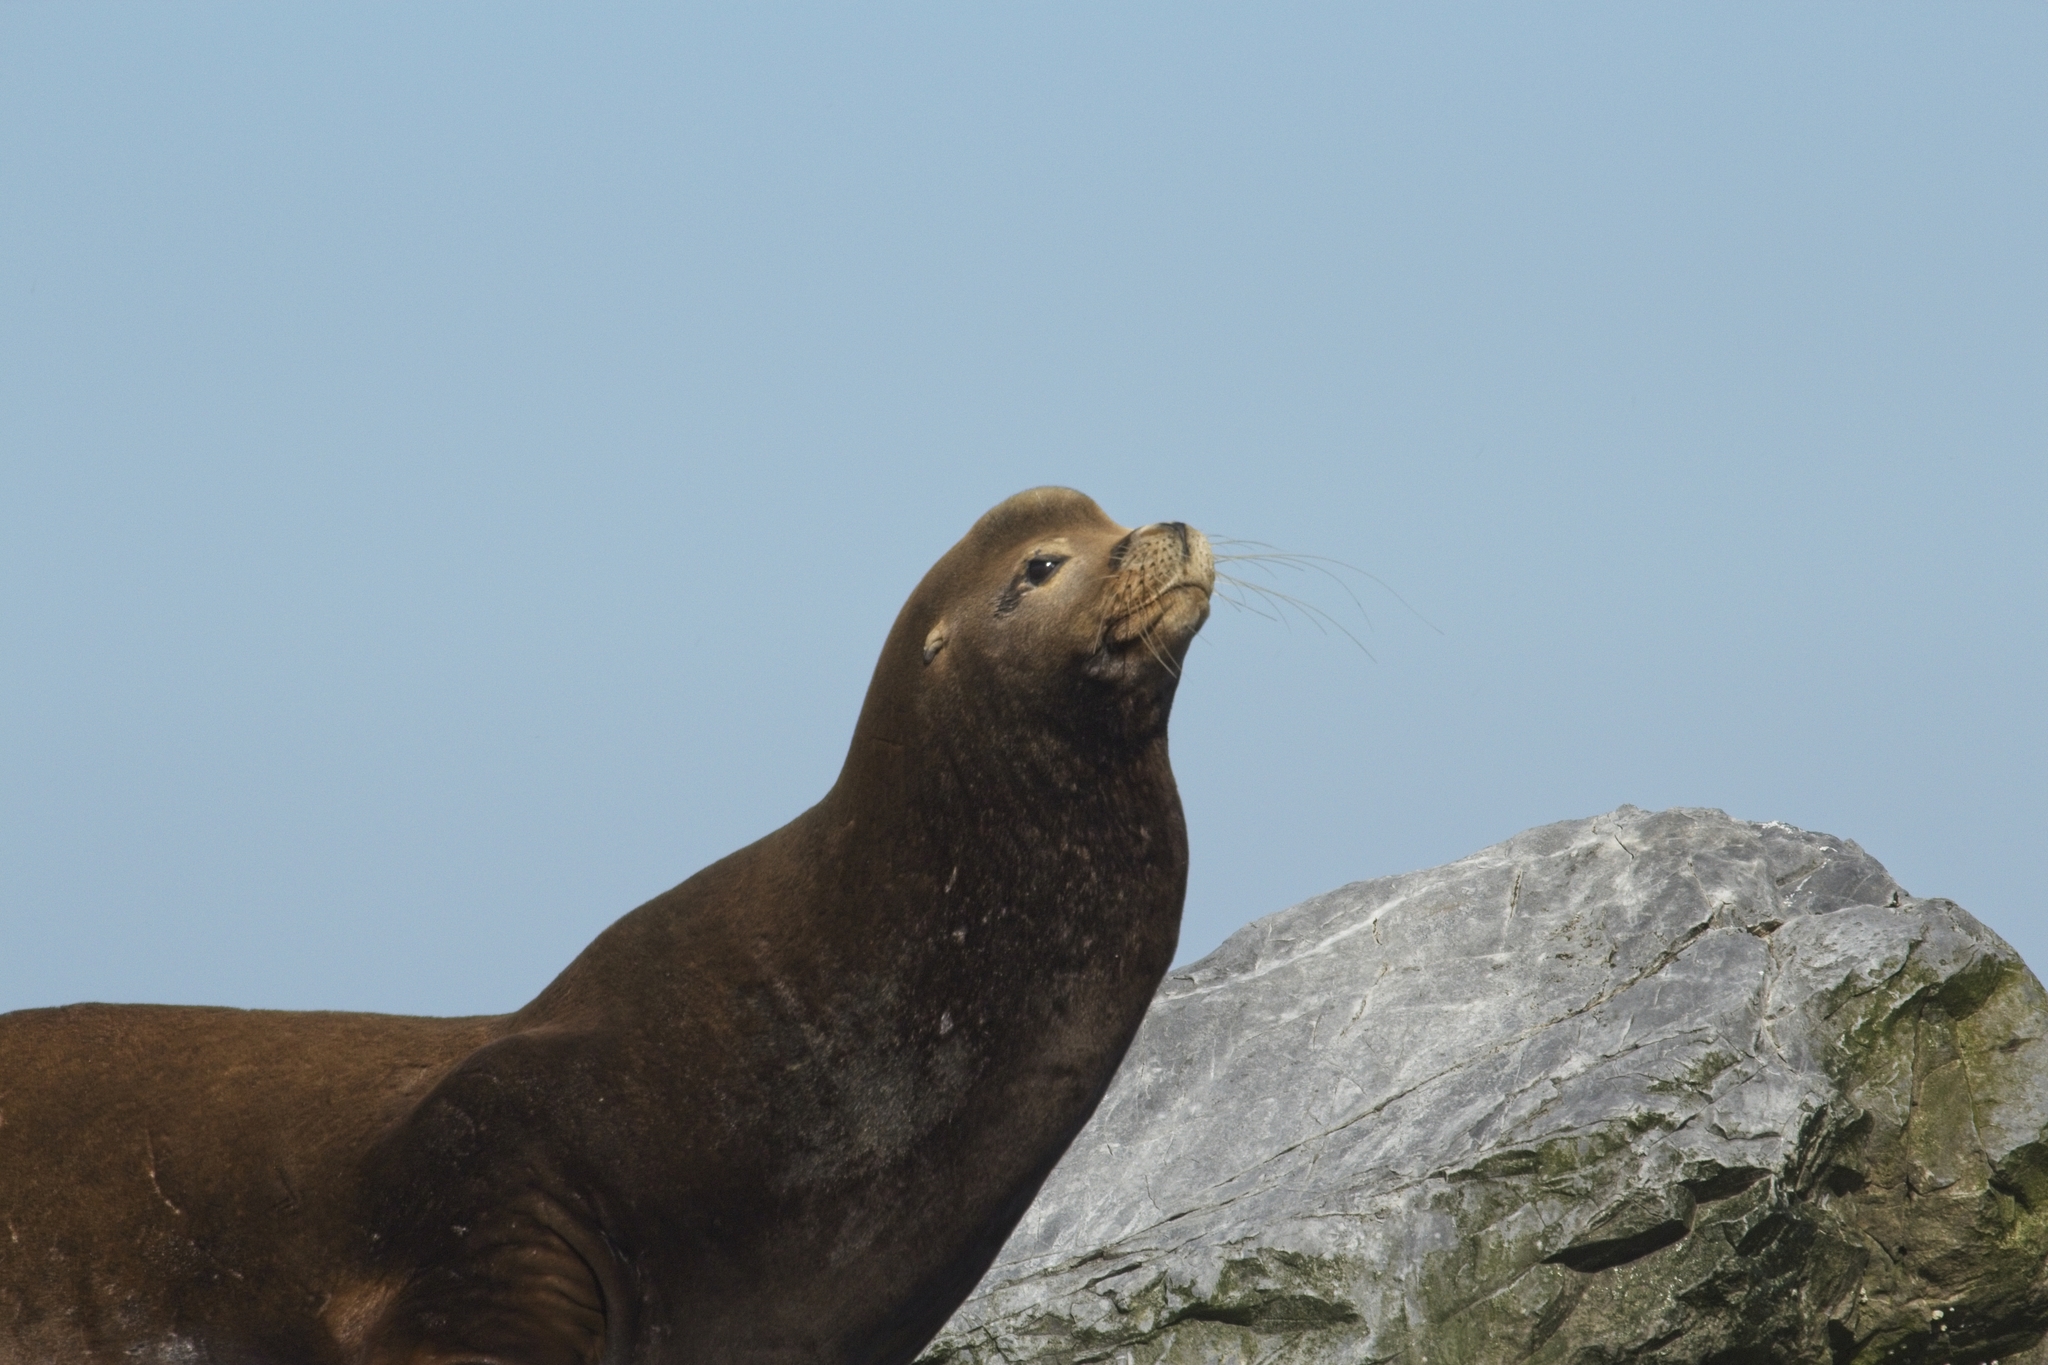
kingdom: Animalia
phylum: Chordata
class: Mammalia
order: Carnivora
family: Otariidae
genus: Zalophus
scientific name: Zalophus californianus
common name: California sea lion
